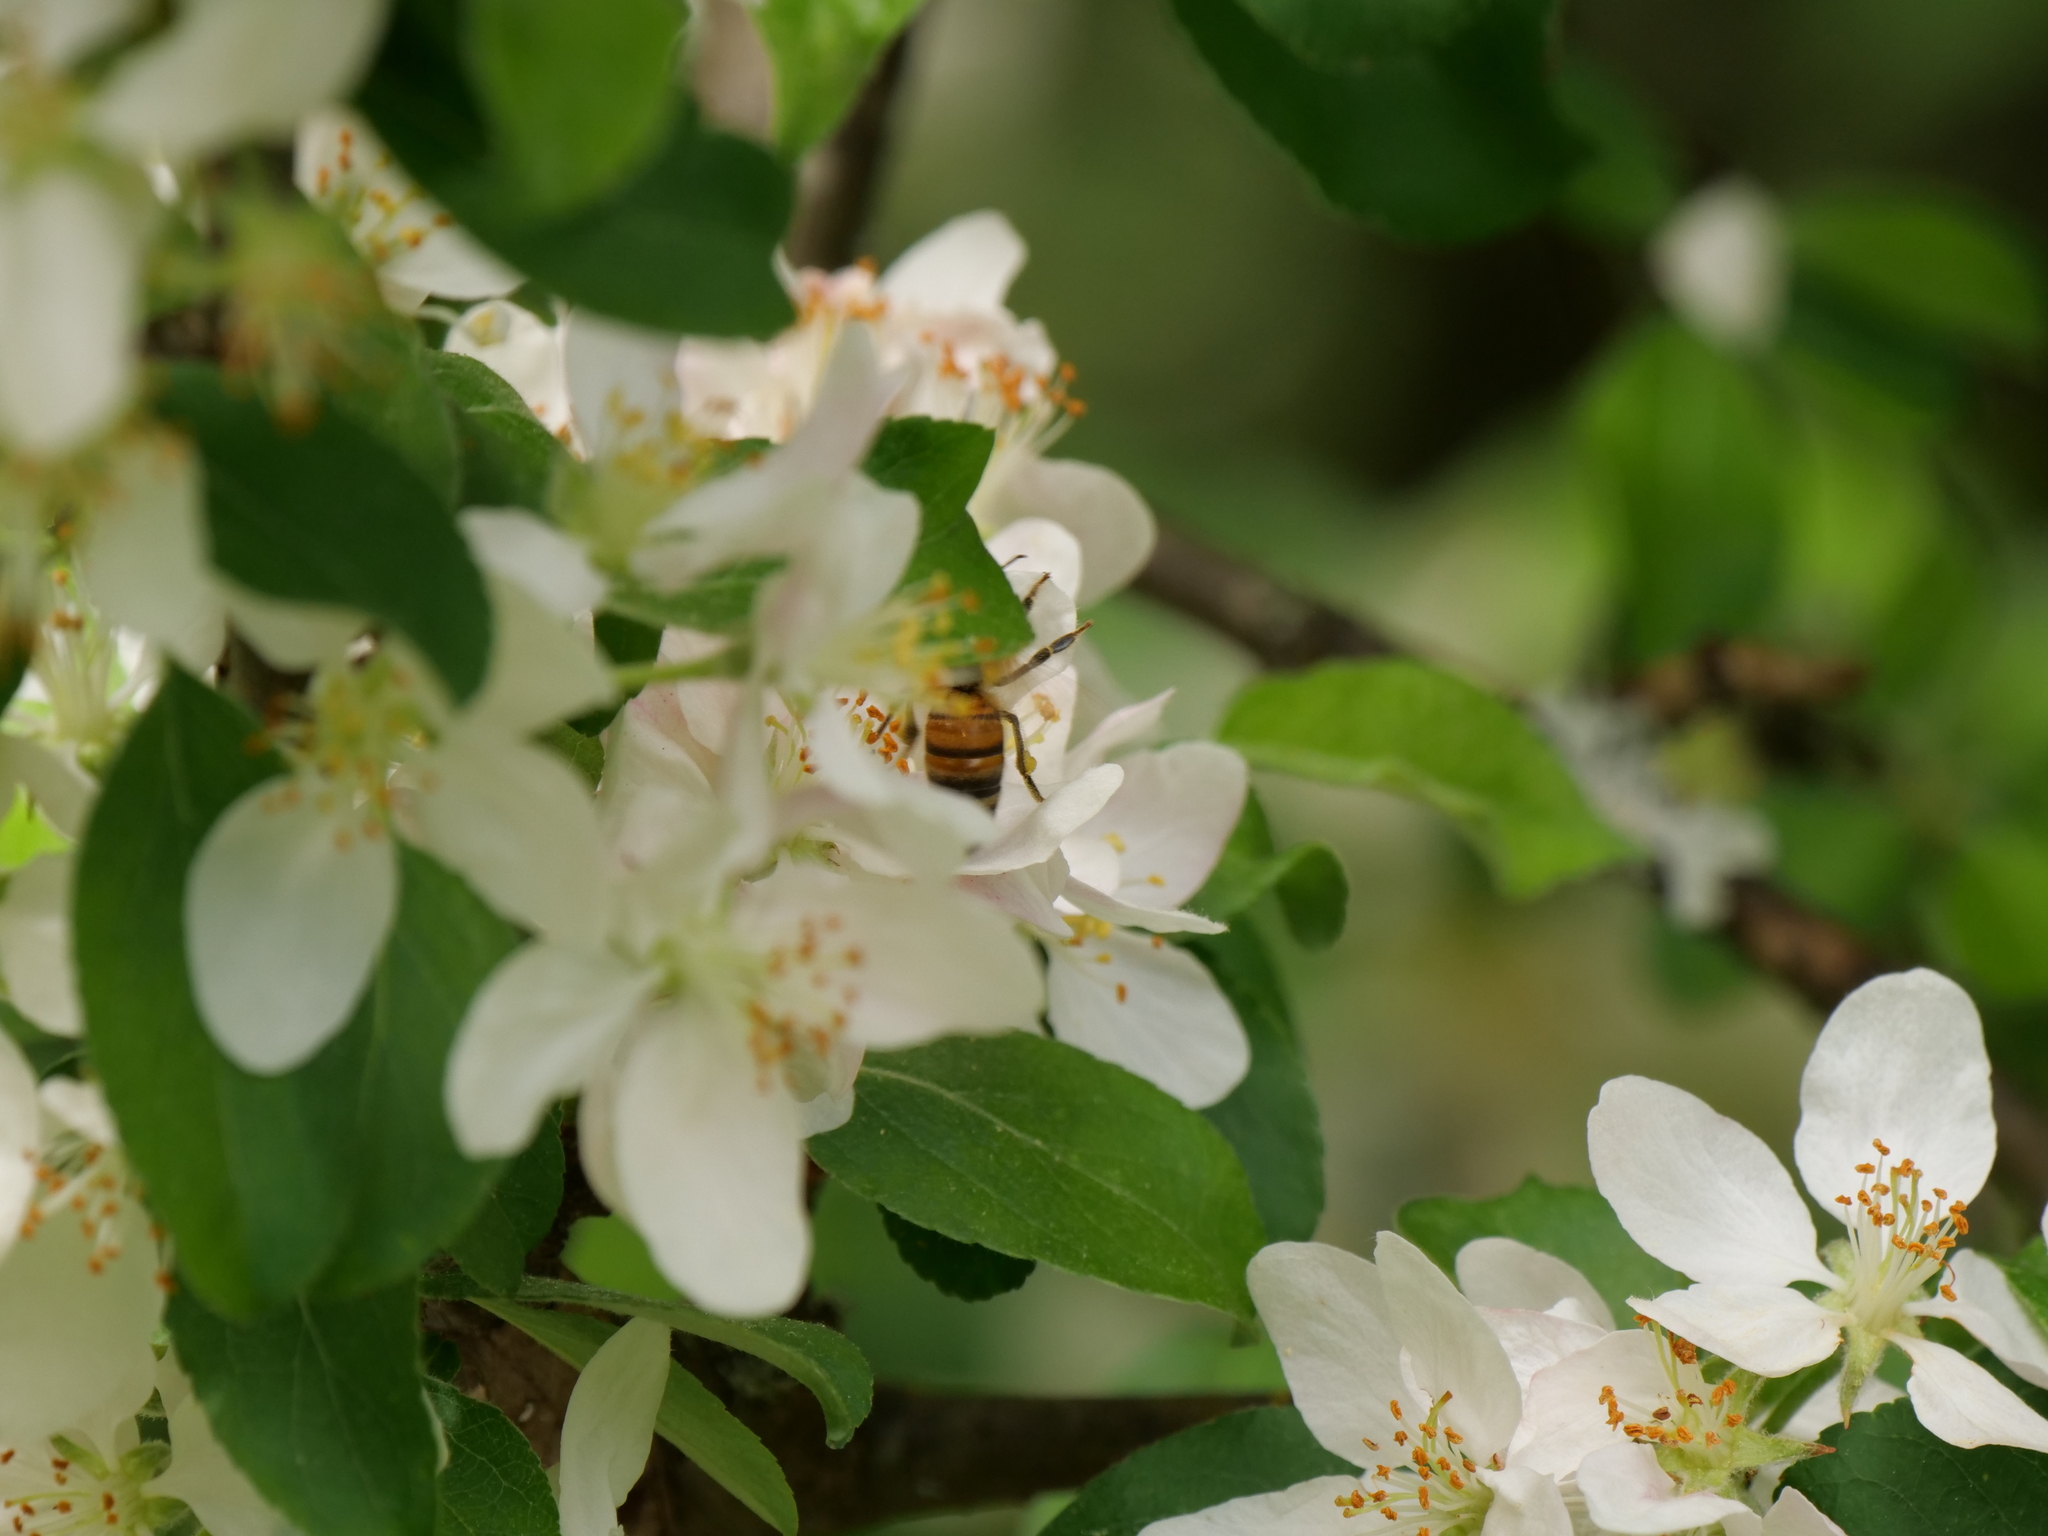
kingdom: Animalia
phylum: Arthropoda
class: Insecta
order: Hymenoptera
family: Apidae
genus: Apis
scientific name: Apis mellifera
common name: Honey bee
